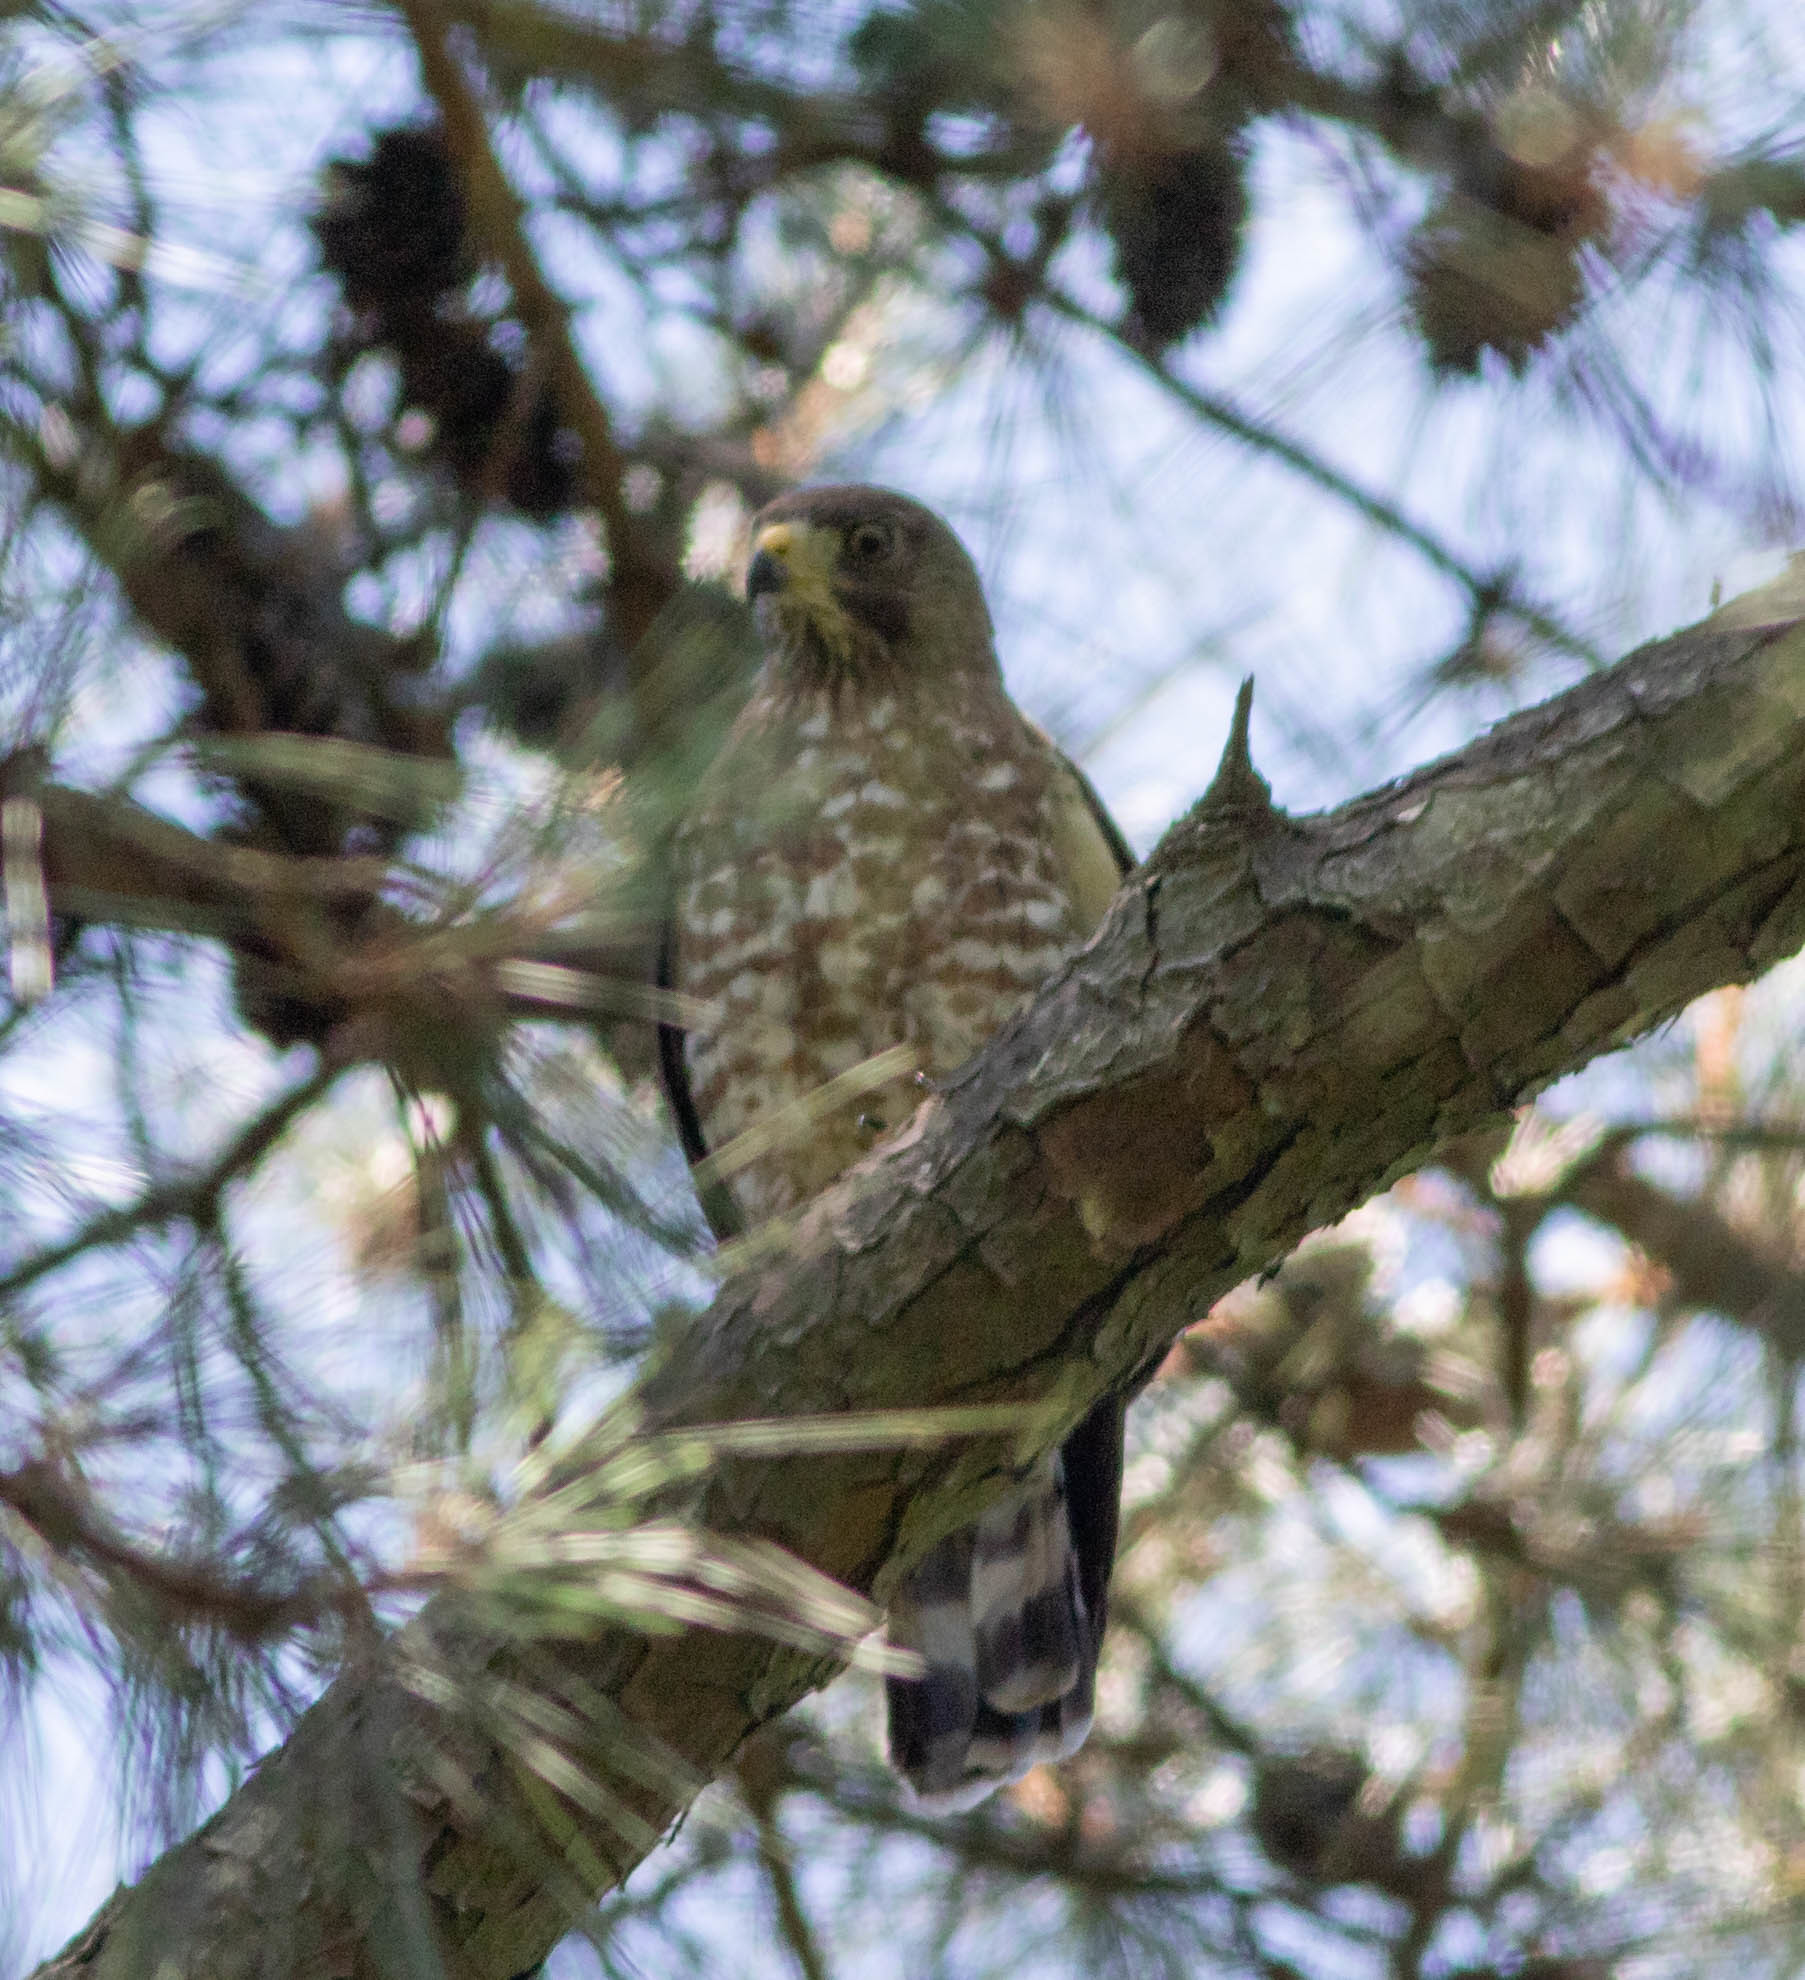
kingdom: Animalia
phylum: Chordata
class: Aves
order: Accipitriformes
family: Accipitridae
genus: Buteo
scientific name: Buteo platypterus
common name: Broad-winged hawk
